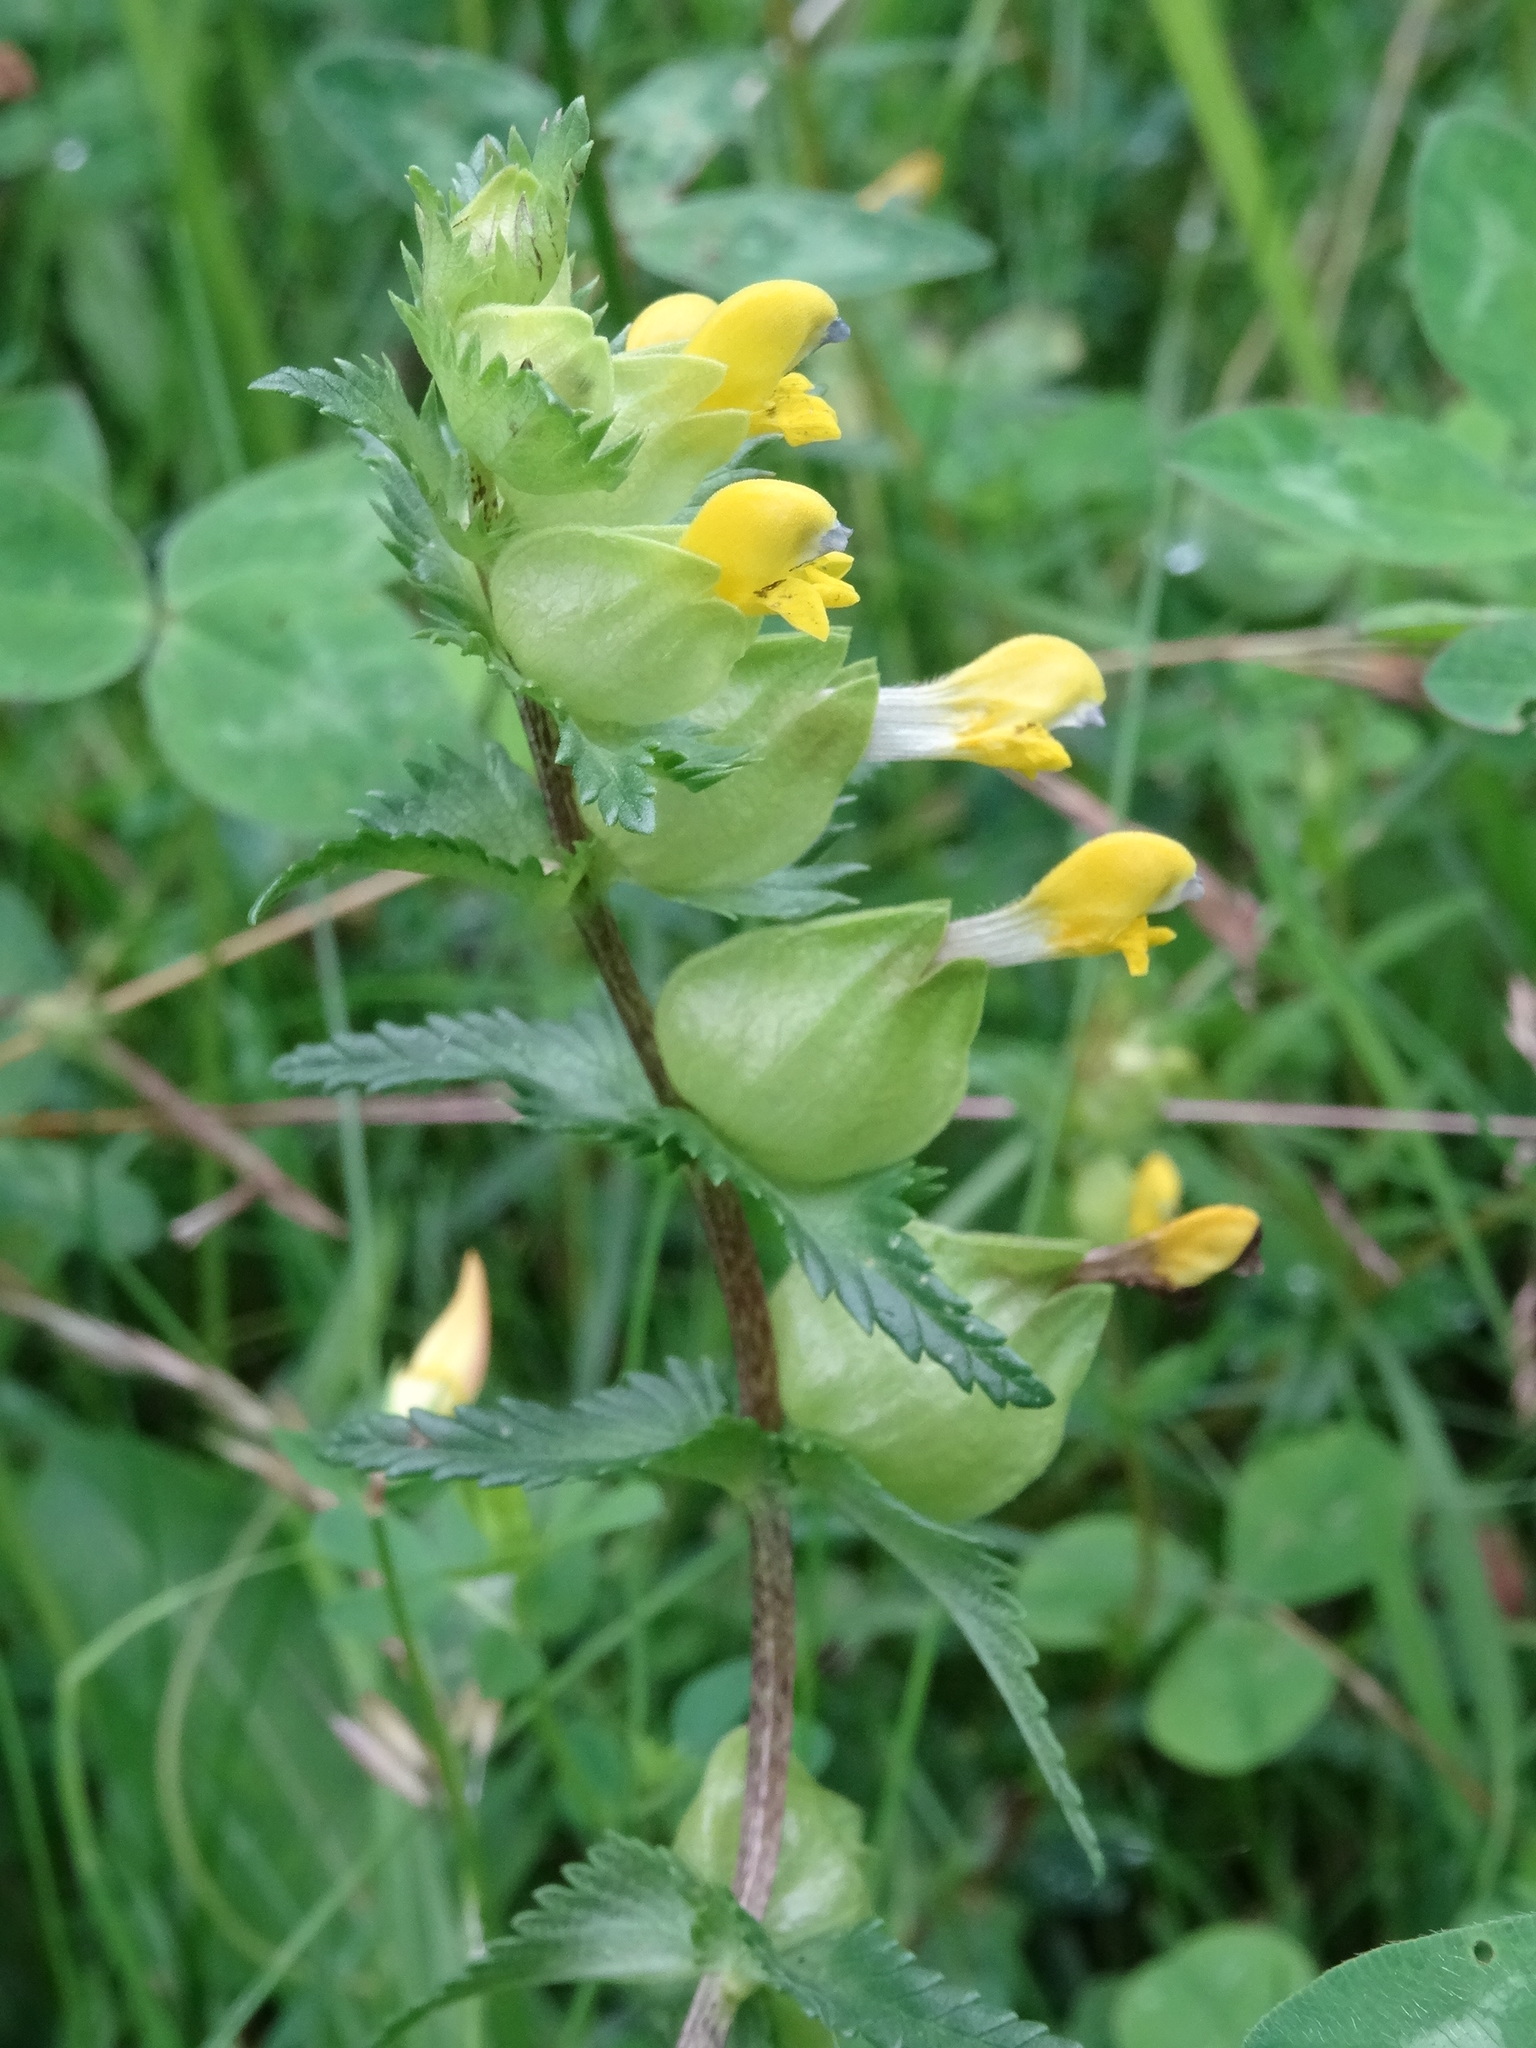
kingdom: Plantae
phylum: Tracheophyta
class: Magnoliopsida
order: Lamiales
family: Orobanchaceae
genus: Rhinanthus
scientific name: Rhinanthus minor
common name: Yellow-rattle
